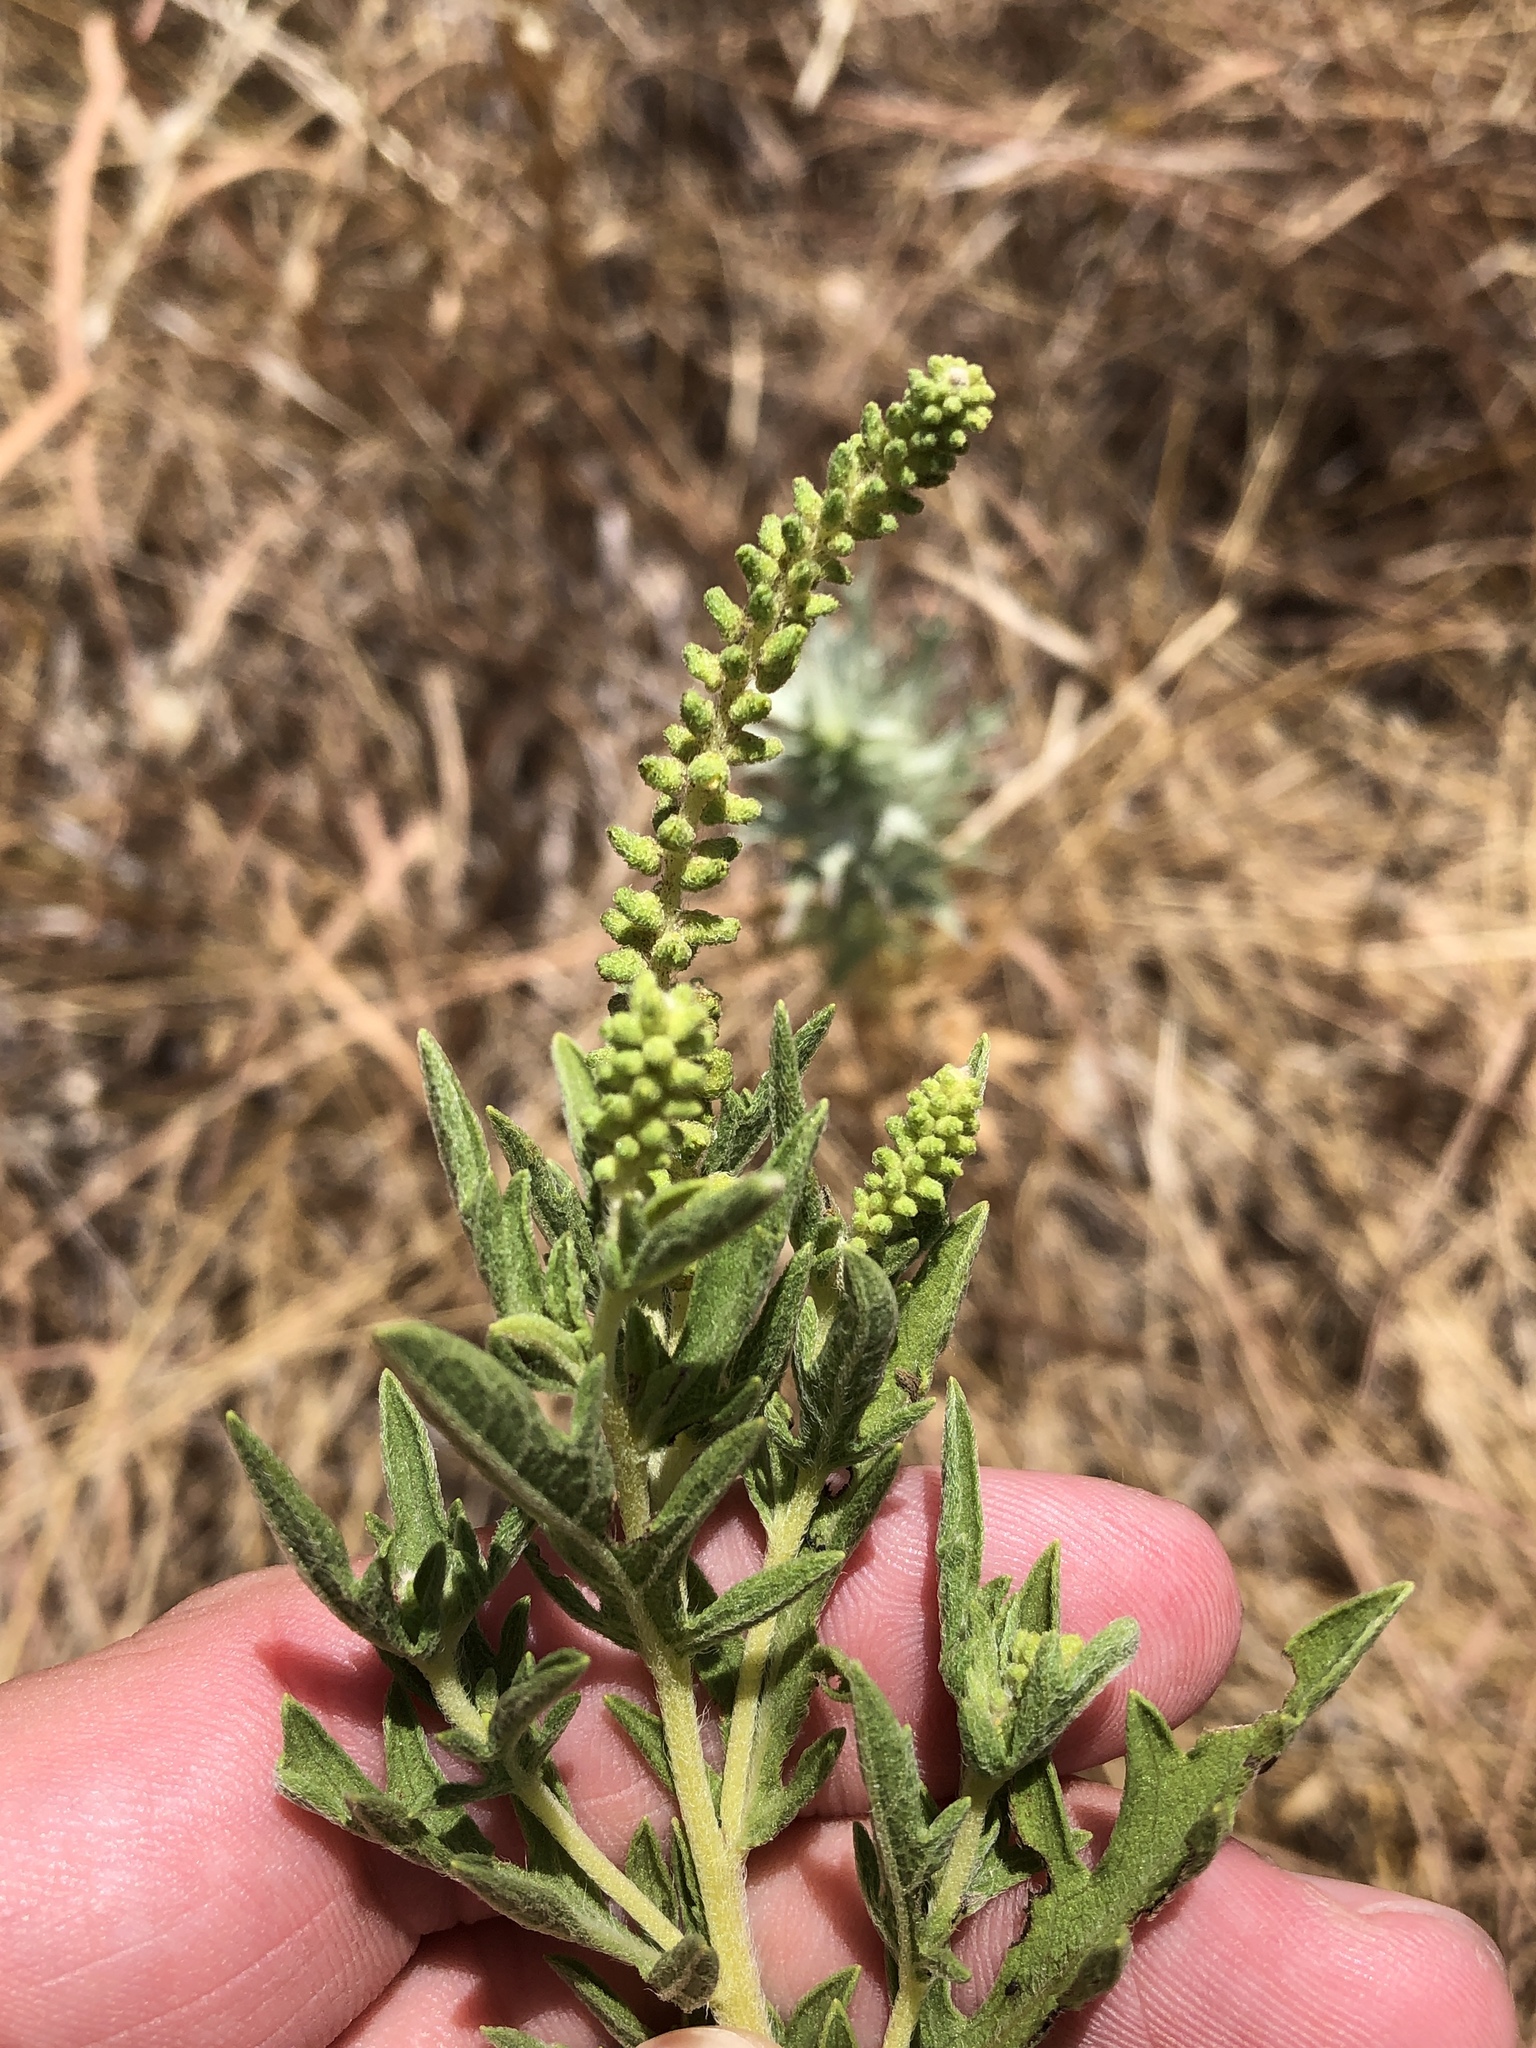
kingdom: Plantae
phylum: Tracheophyta
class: Magnoliopsida
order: Asterales
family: Asteraceae
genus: Ambrosia
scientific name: Ambrosia psilostachya
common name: Perennial ragweed
